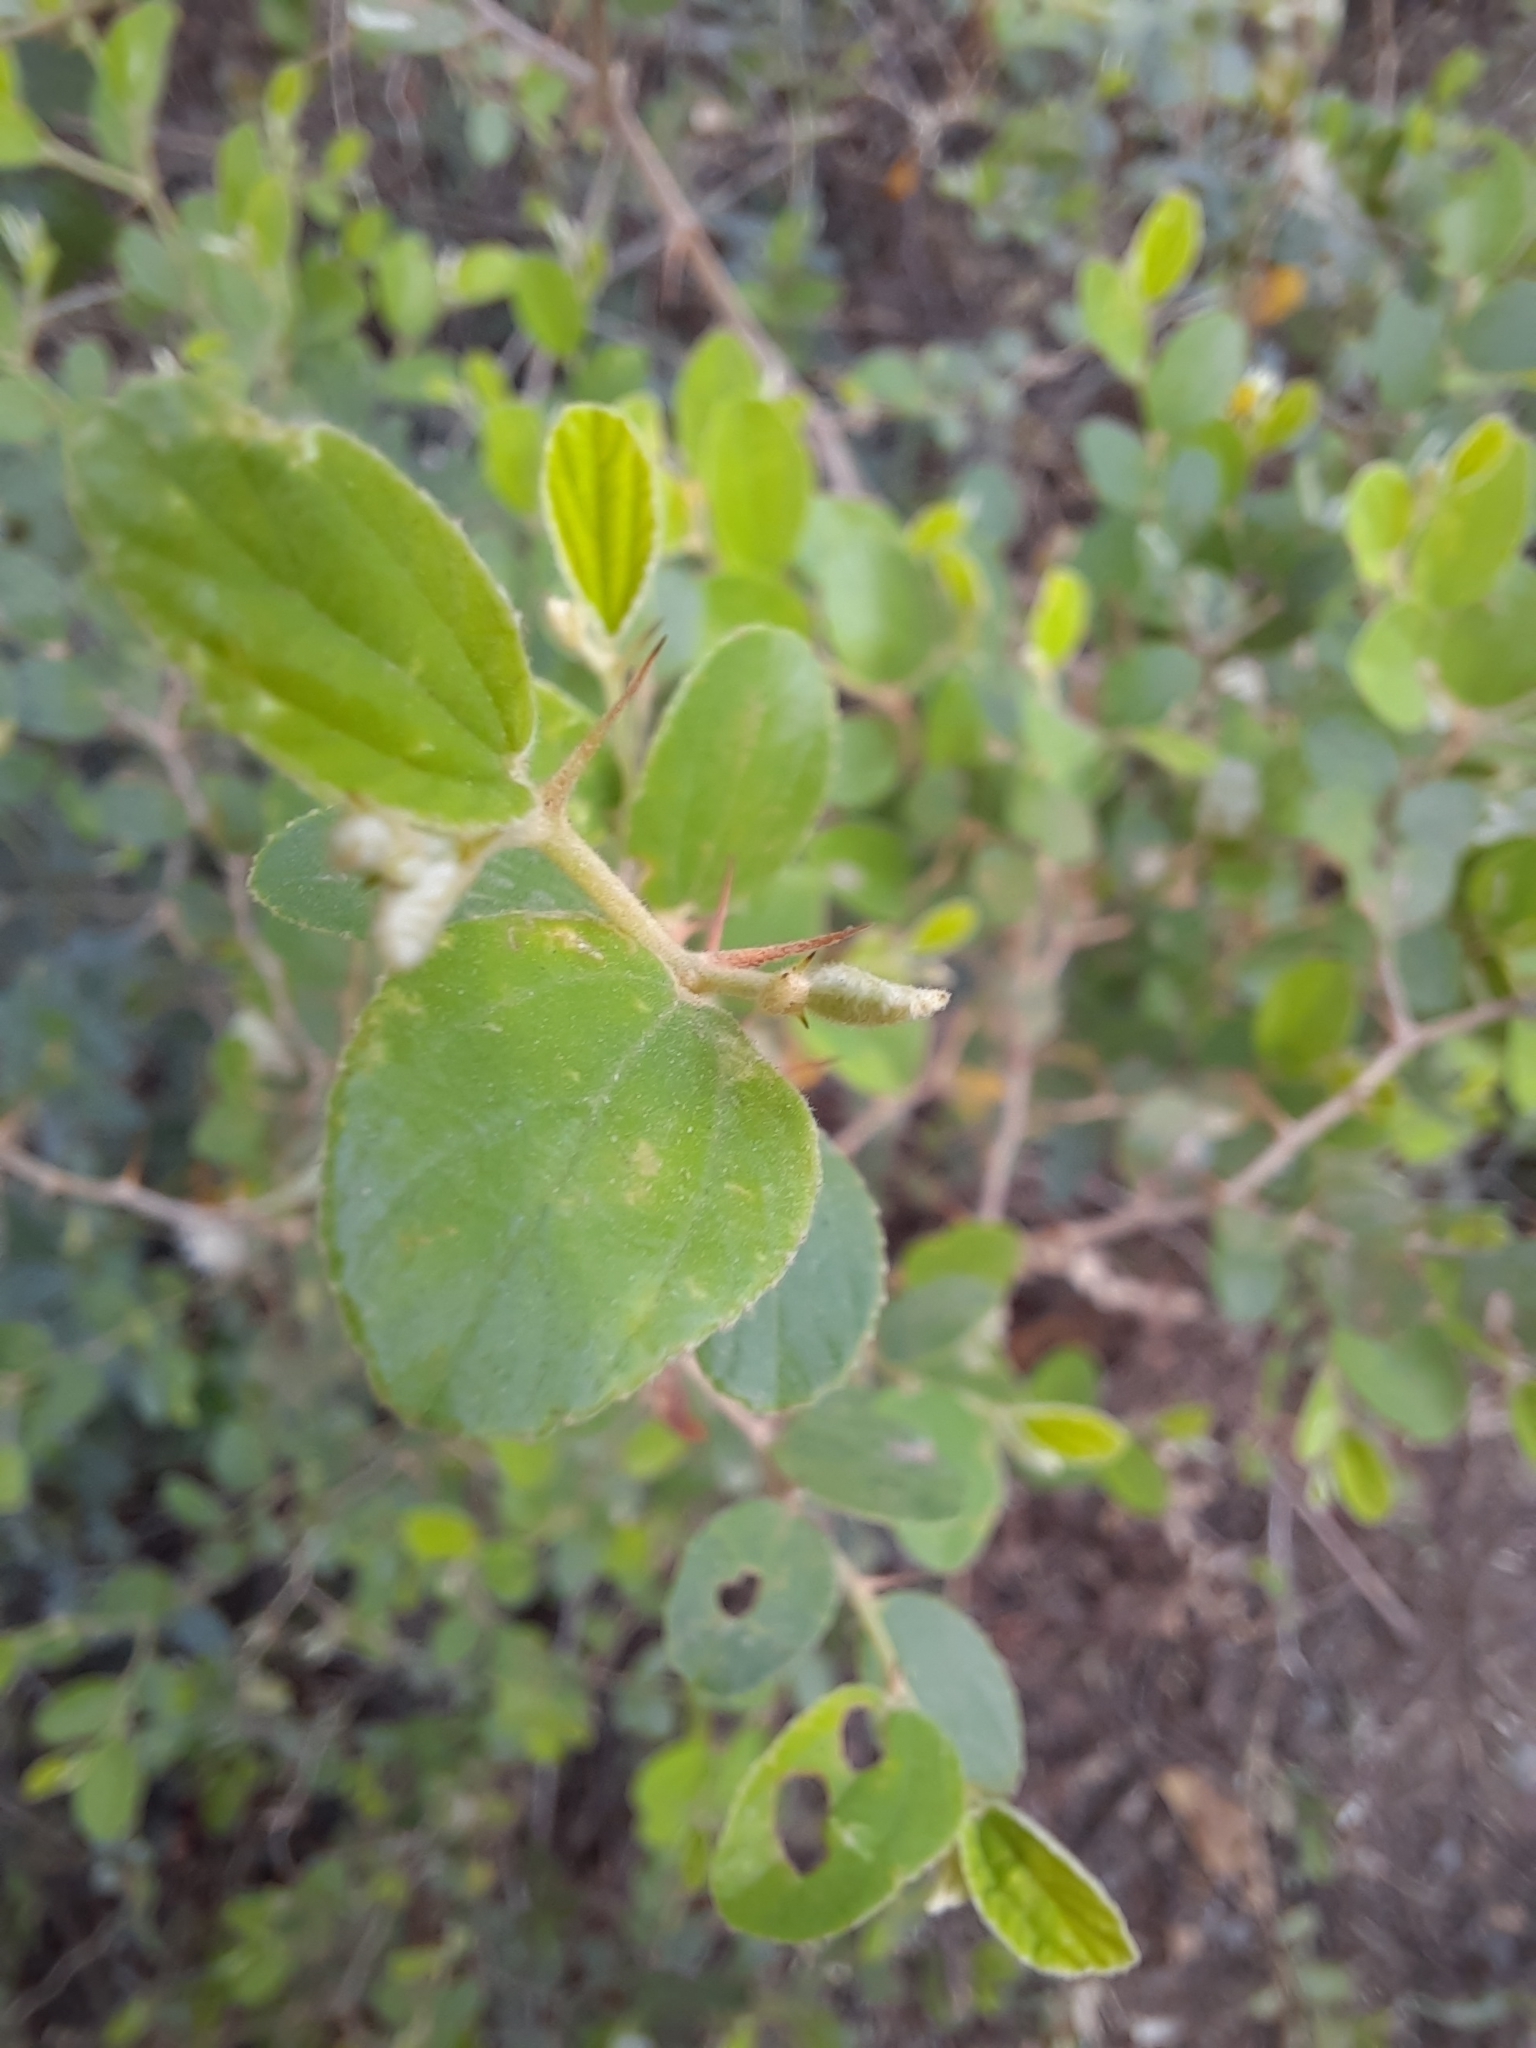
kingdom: Plantae
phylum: Tracheophyta
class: Magnoliopsida
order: Asterales
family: Asteraceae
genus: Tridax
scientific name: Tridax procumbens
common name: Coatbuttons
